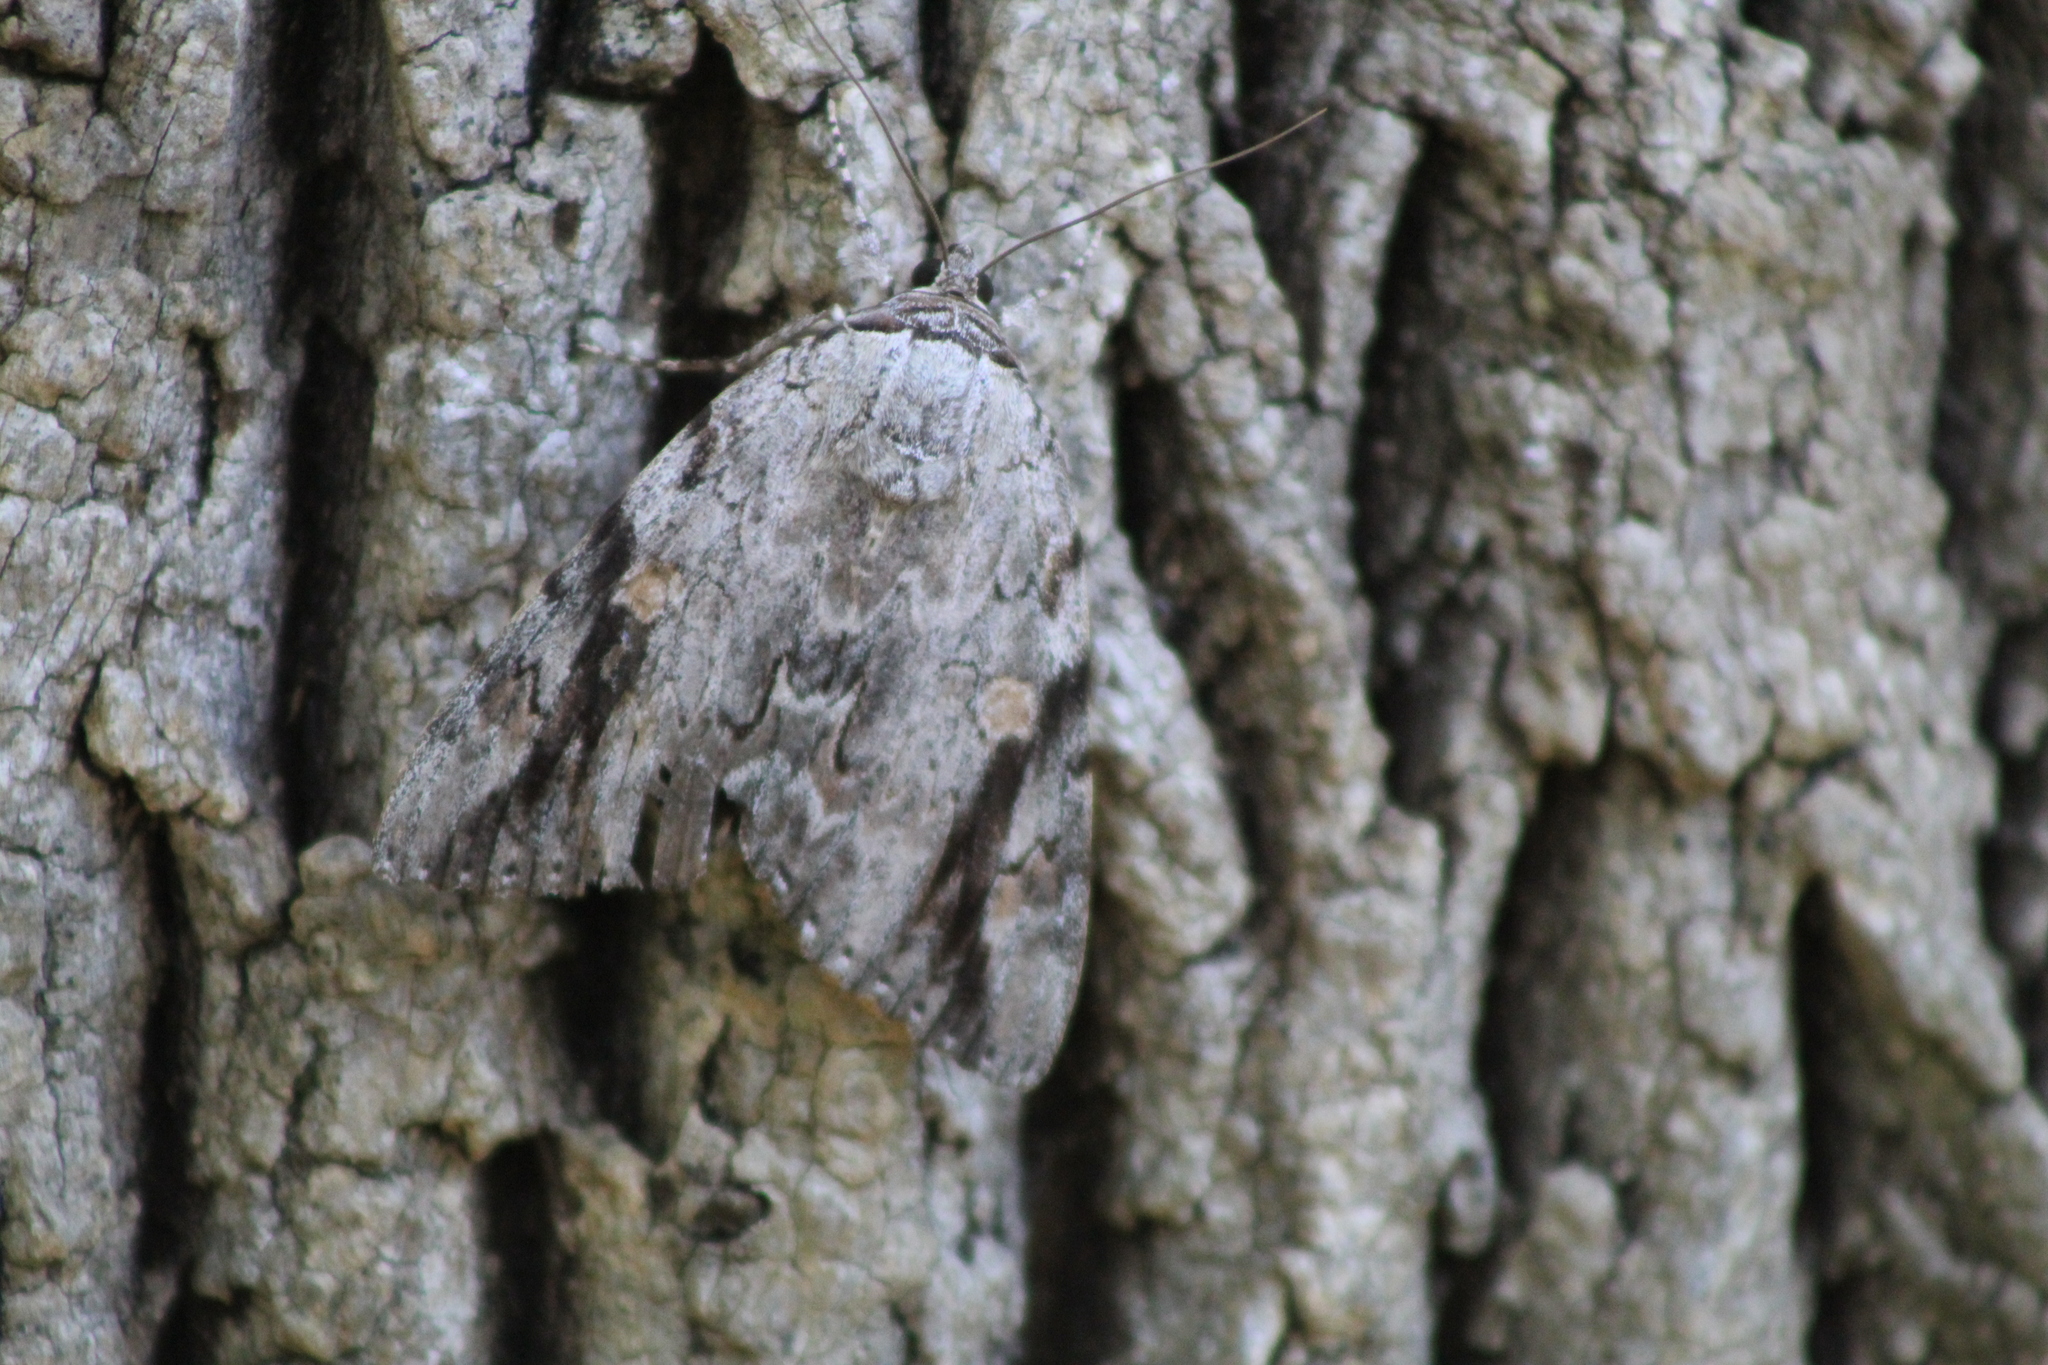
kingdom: Animalia
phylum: Arthropoda
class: Insecta
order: Lepidoptera
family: Erebidae
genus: Catocala
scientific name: Catocala maestosa
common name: Sad underwing
